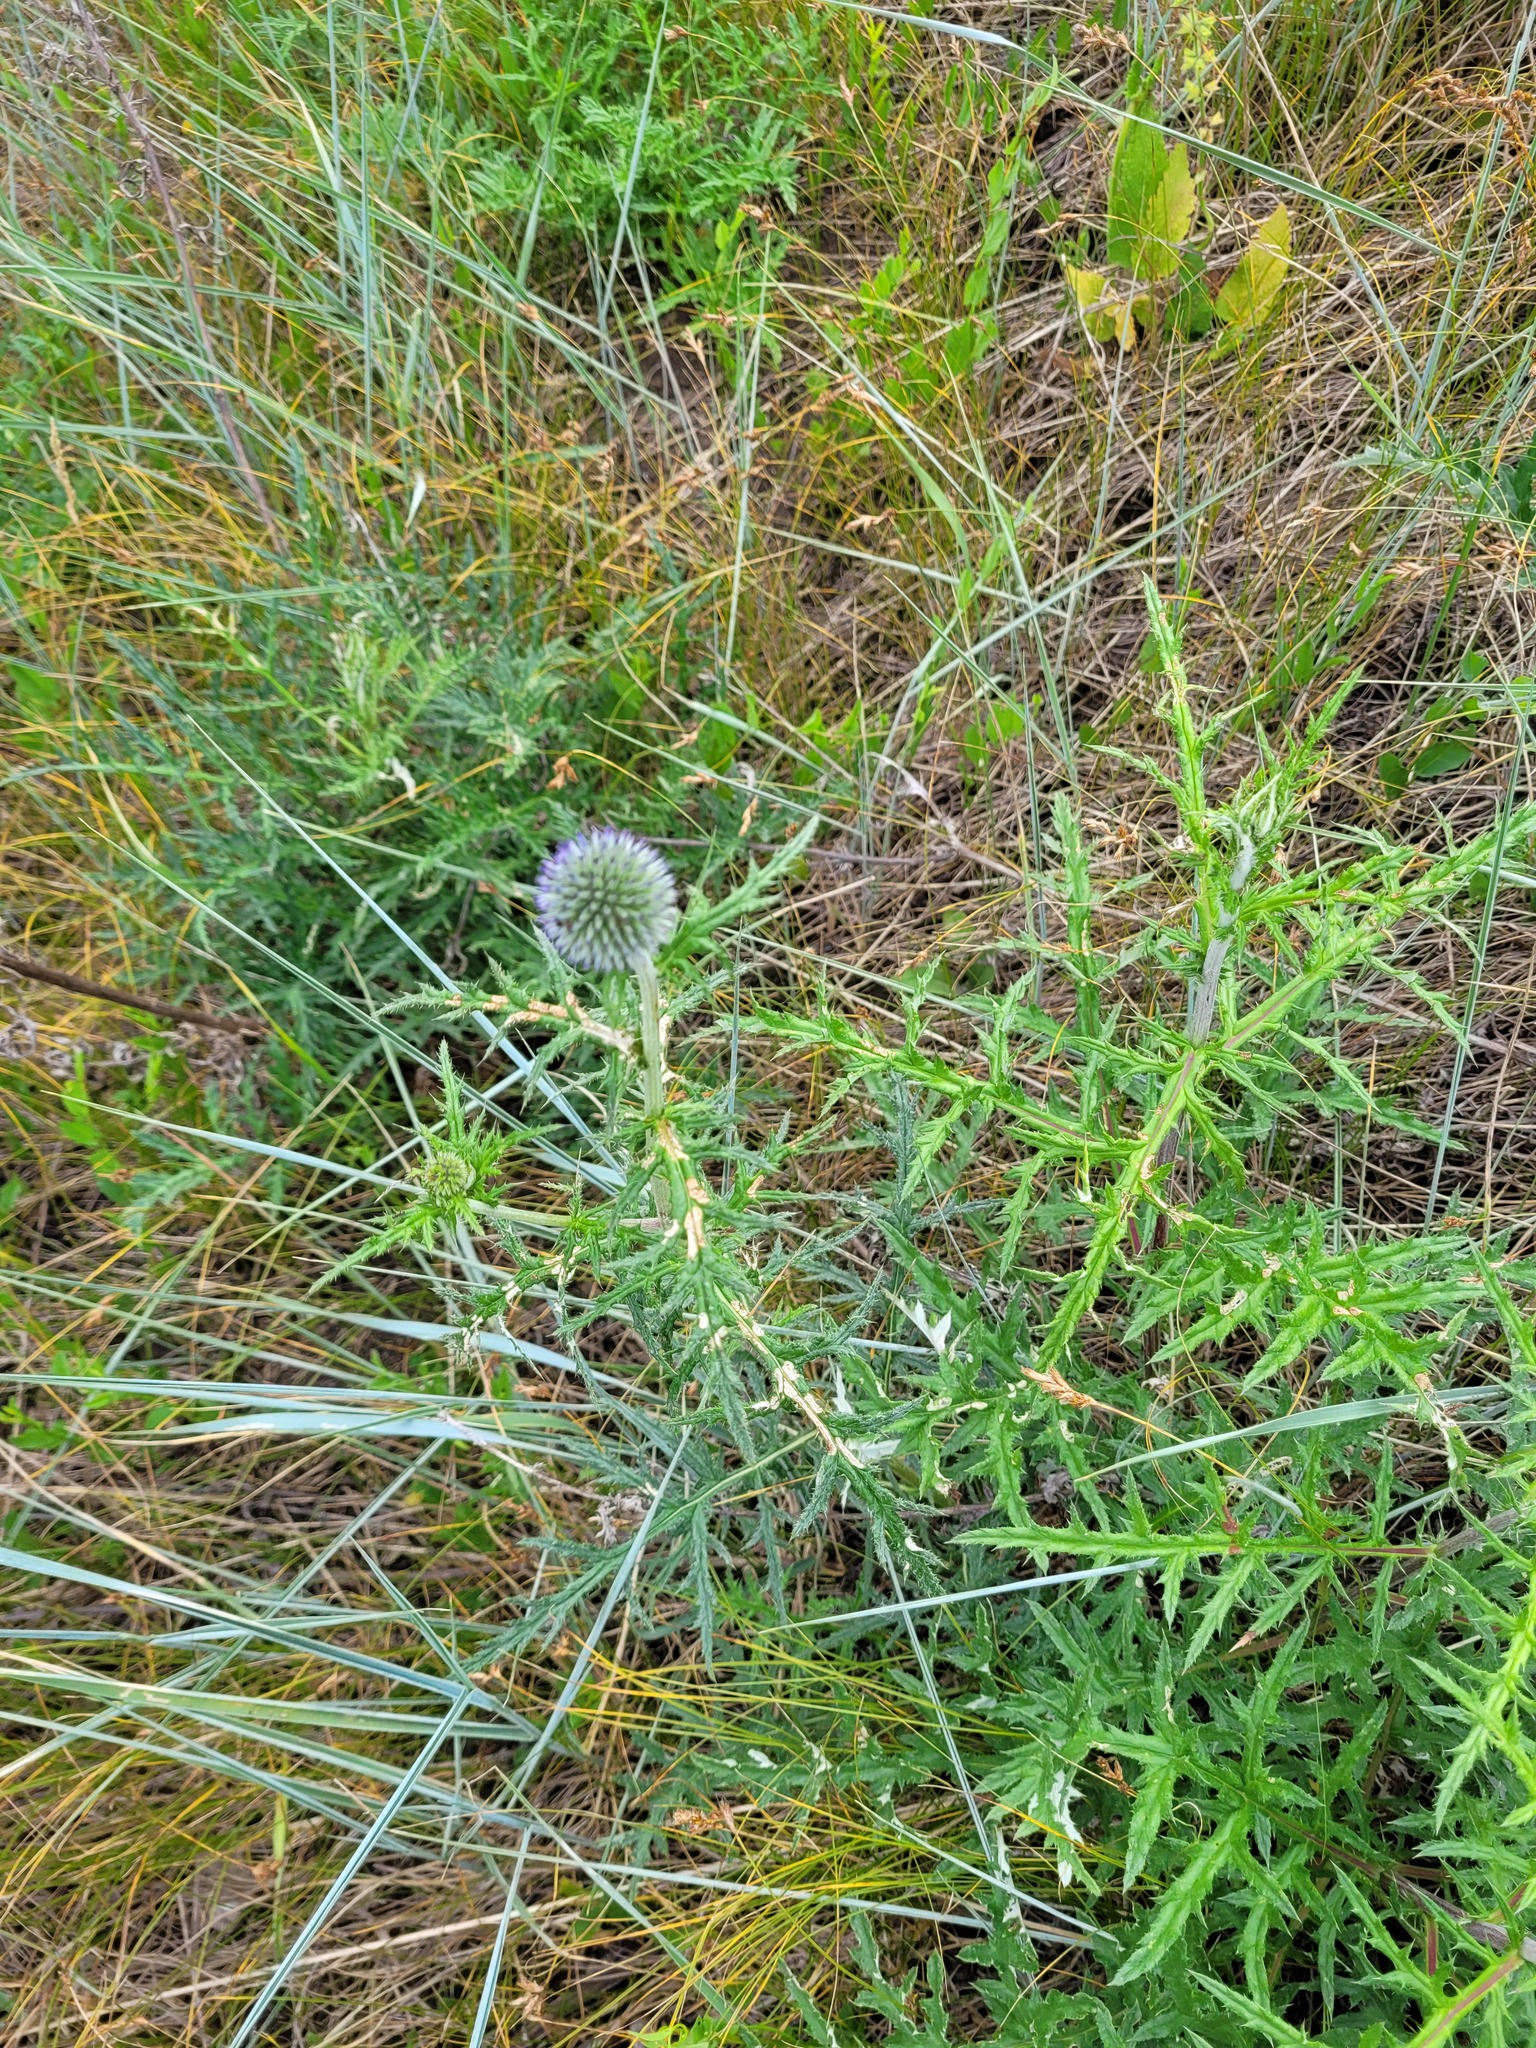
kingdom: Plantae
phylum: Tracheophyta
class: Magnoliopsida
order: Asterales
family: Asteraceae
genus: Echinops
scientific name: Echinops ritro
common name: Globe thistle
